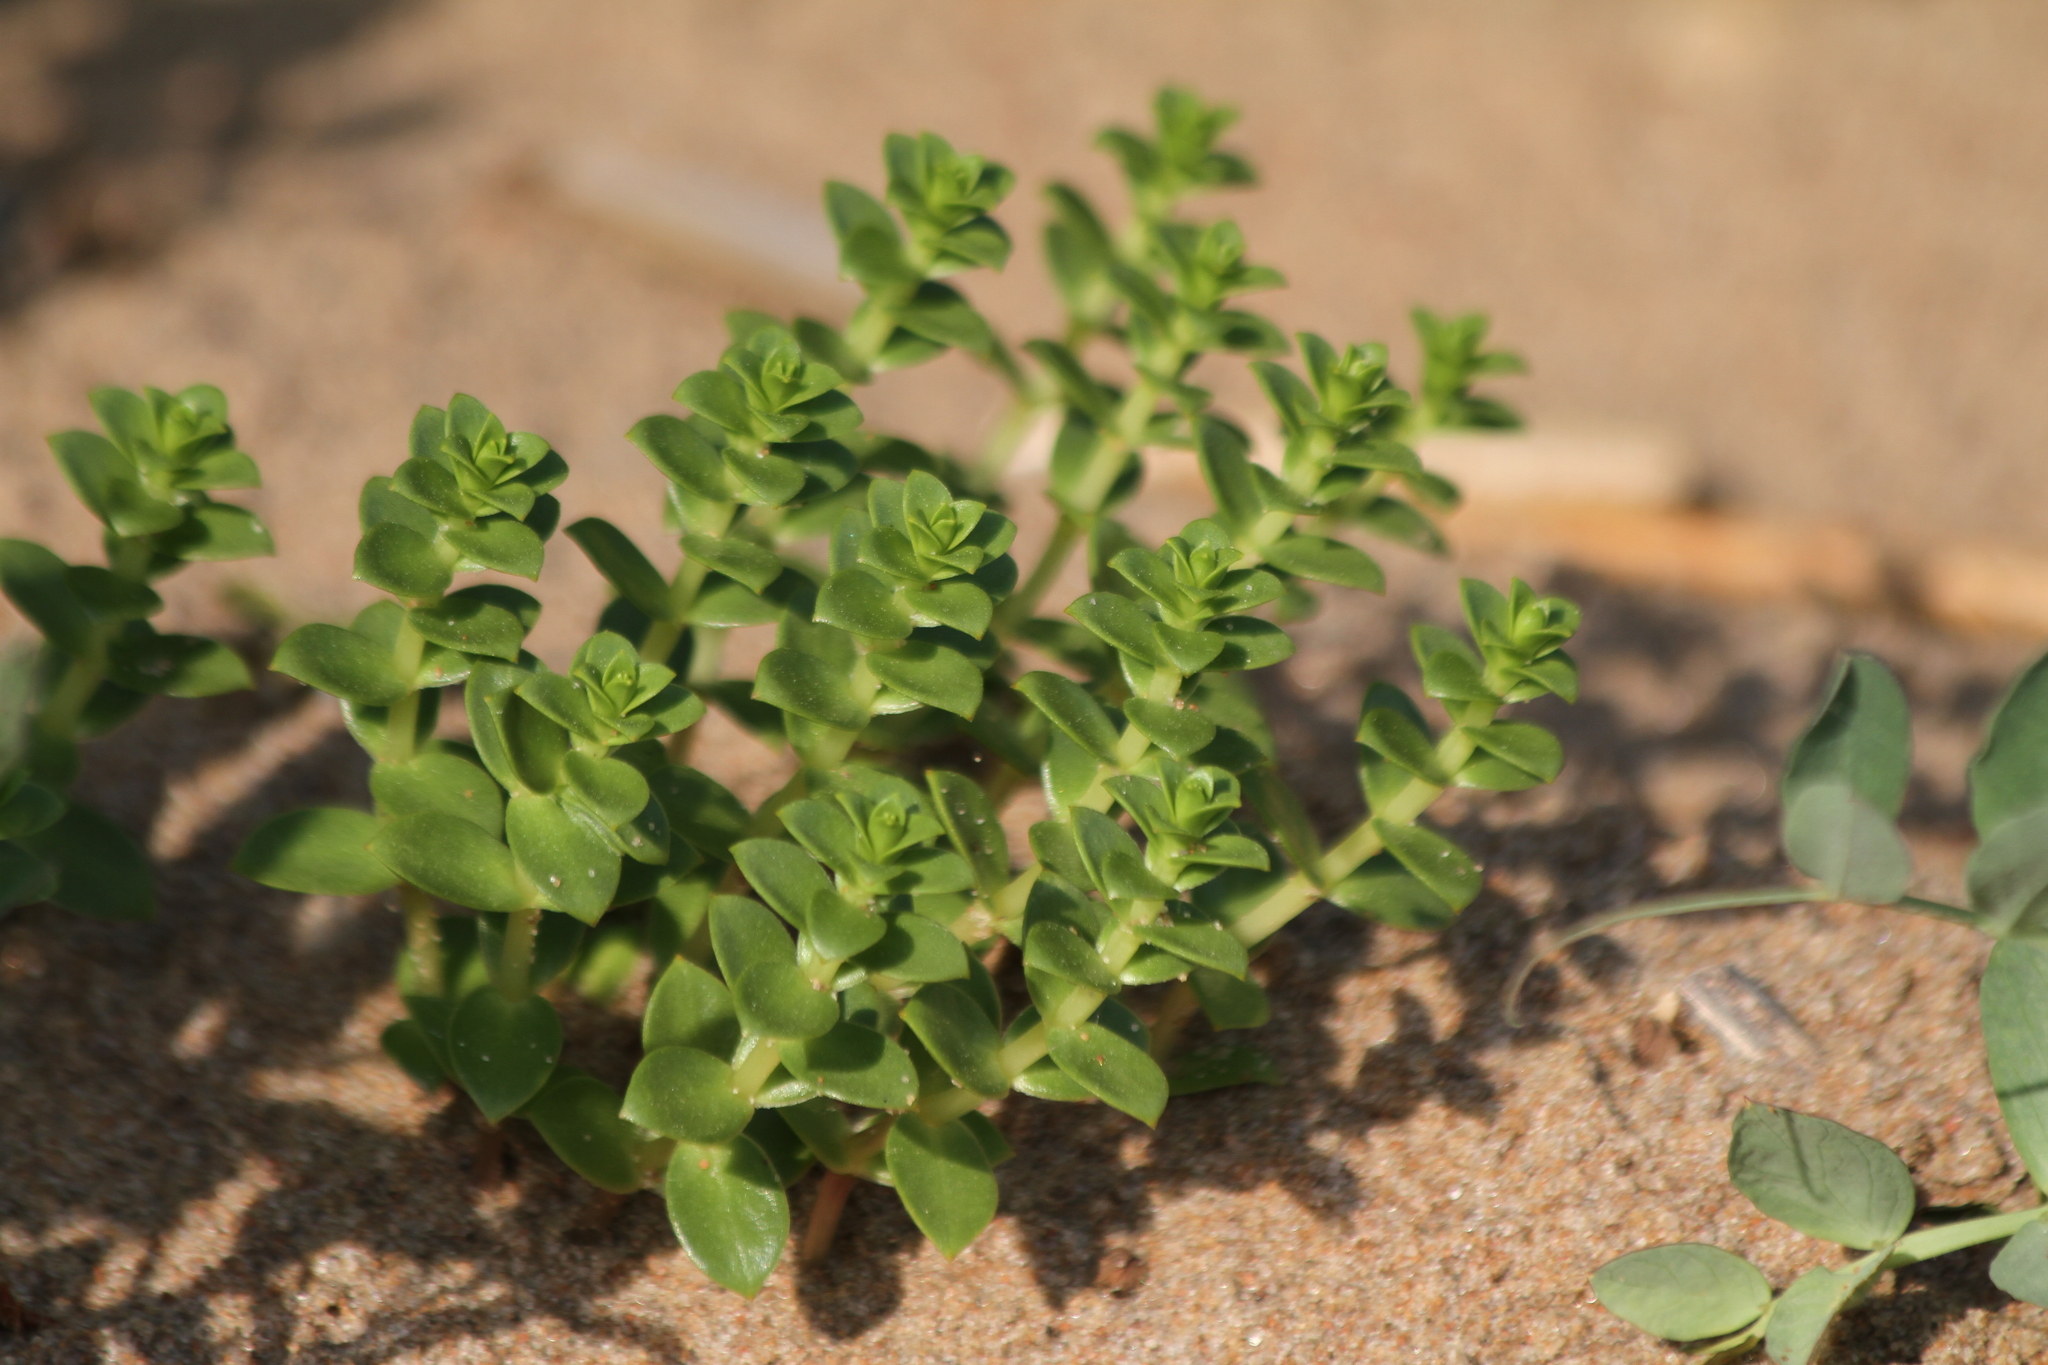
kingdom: Plantae
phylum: Tracheophyta
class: Magnoliopsida
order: Caryophyllales
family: Caryophyllaceae
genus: Honckenya
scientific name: Honckenya peploides
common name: Sea sandwort
